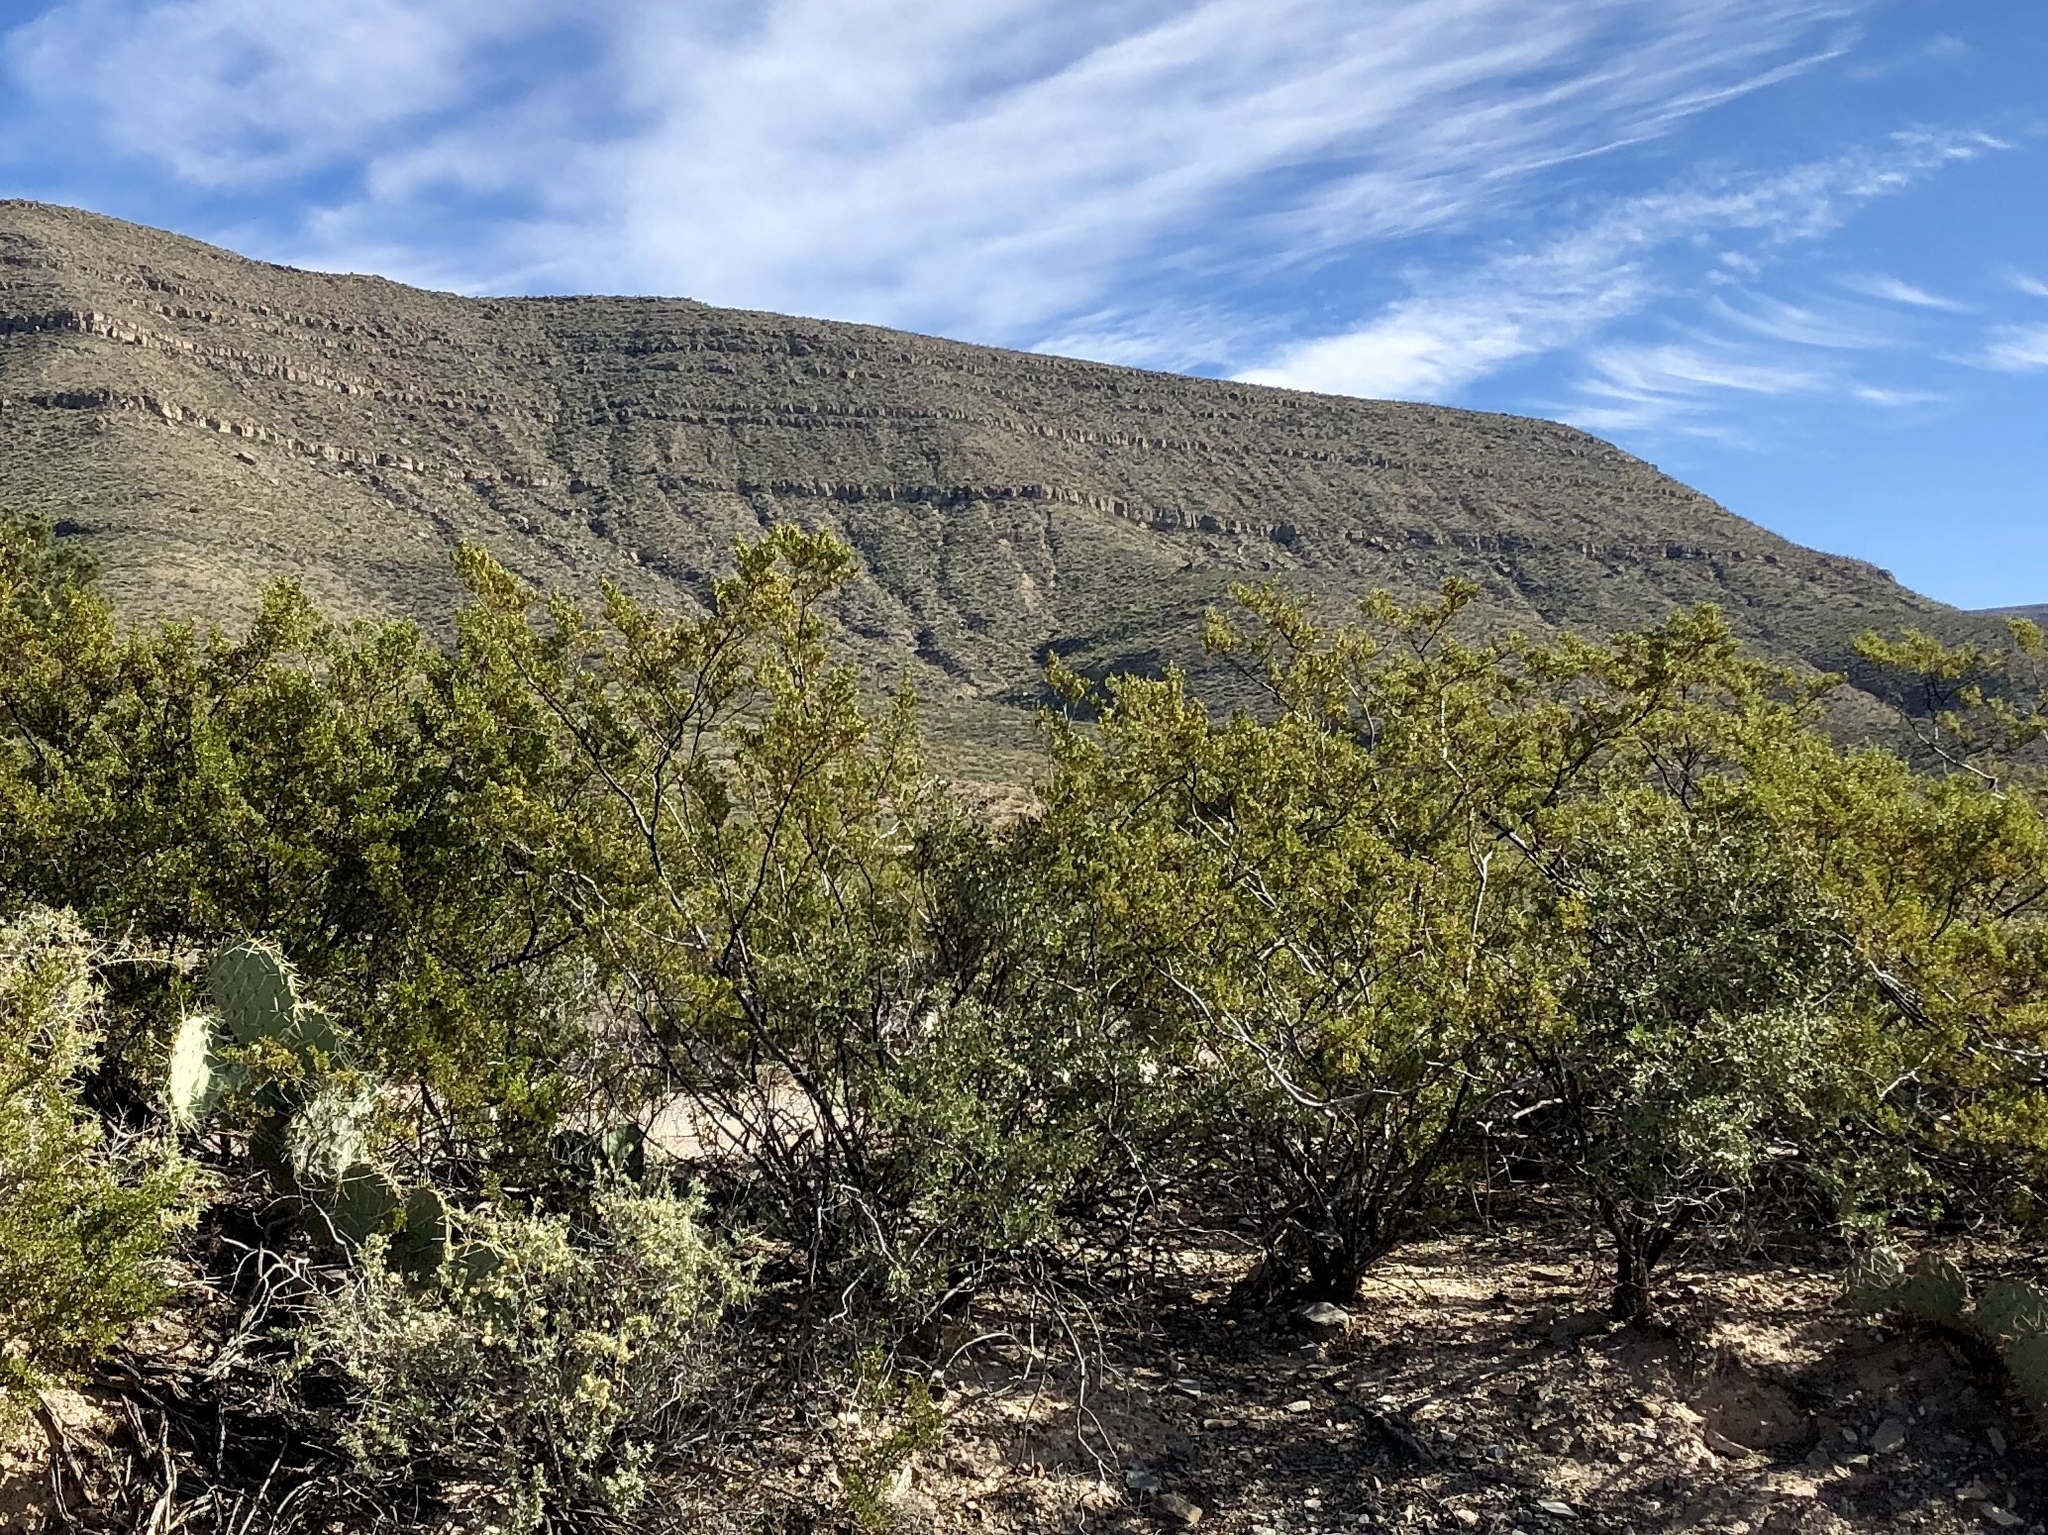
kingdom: Plantae
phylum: Tracheophyta
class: Magnoliopsida
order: Zygophyllales
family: Zygophyllaceae
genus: Larrea
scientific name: Larrea tridentata
